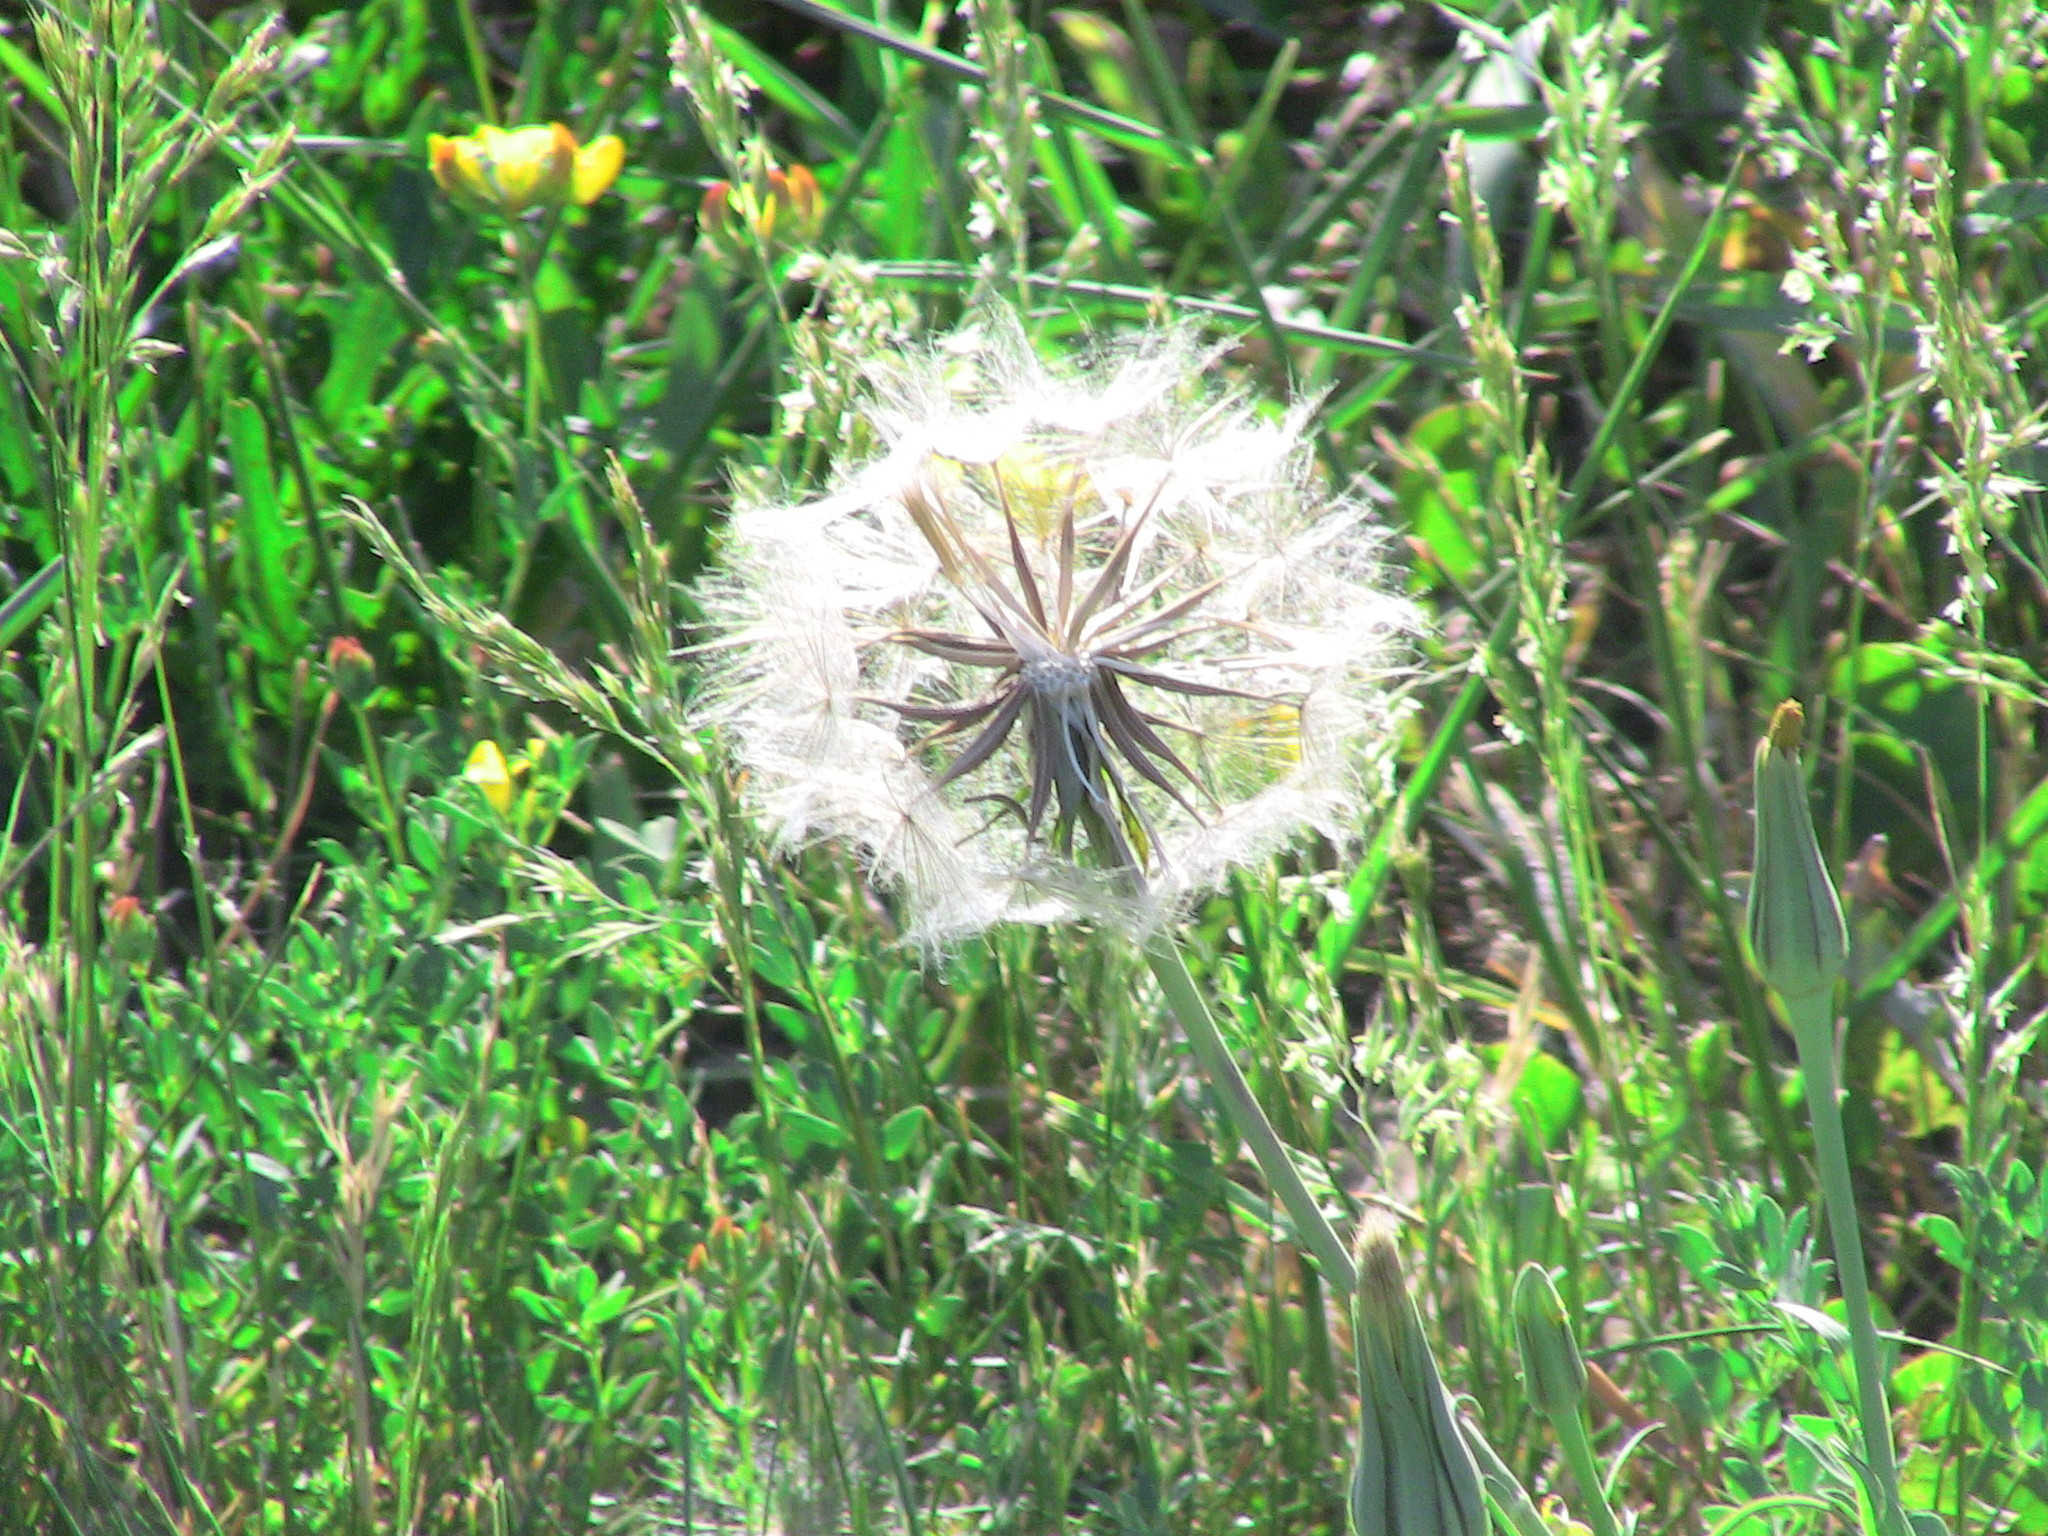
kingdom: Plantae
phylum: Tracheophyta
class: Magnoliopsida
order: Asterales
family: Asteraceae
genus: Tragopogon
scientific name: Tragopogon pratensis
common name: Goat's-beard
